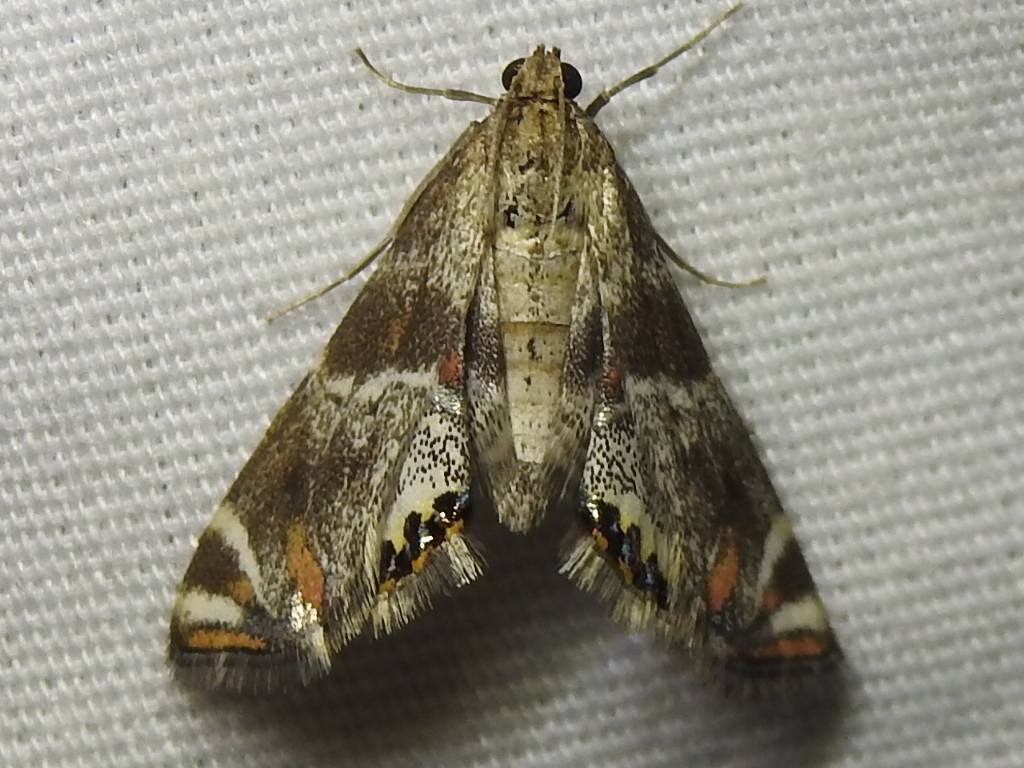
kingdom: Animalia
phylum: Arthropoda
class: Insecta
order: Lepidoptera
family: Crambidae
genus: Petrophila
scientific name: Petrophila jaliscalis
